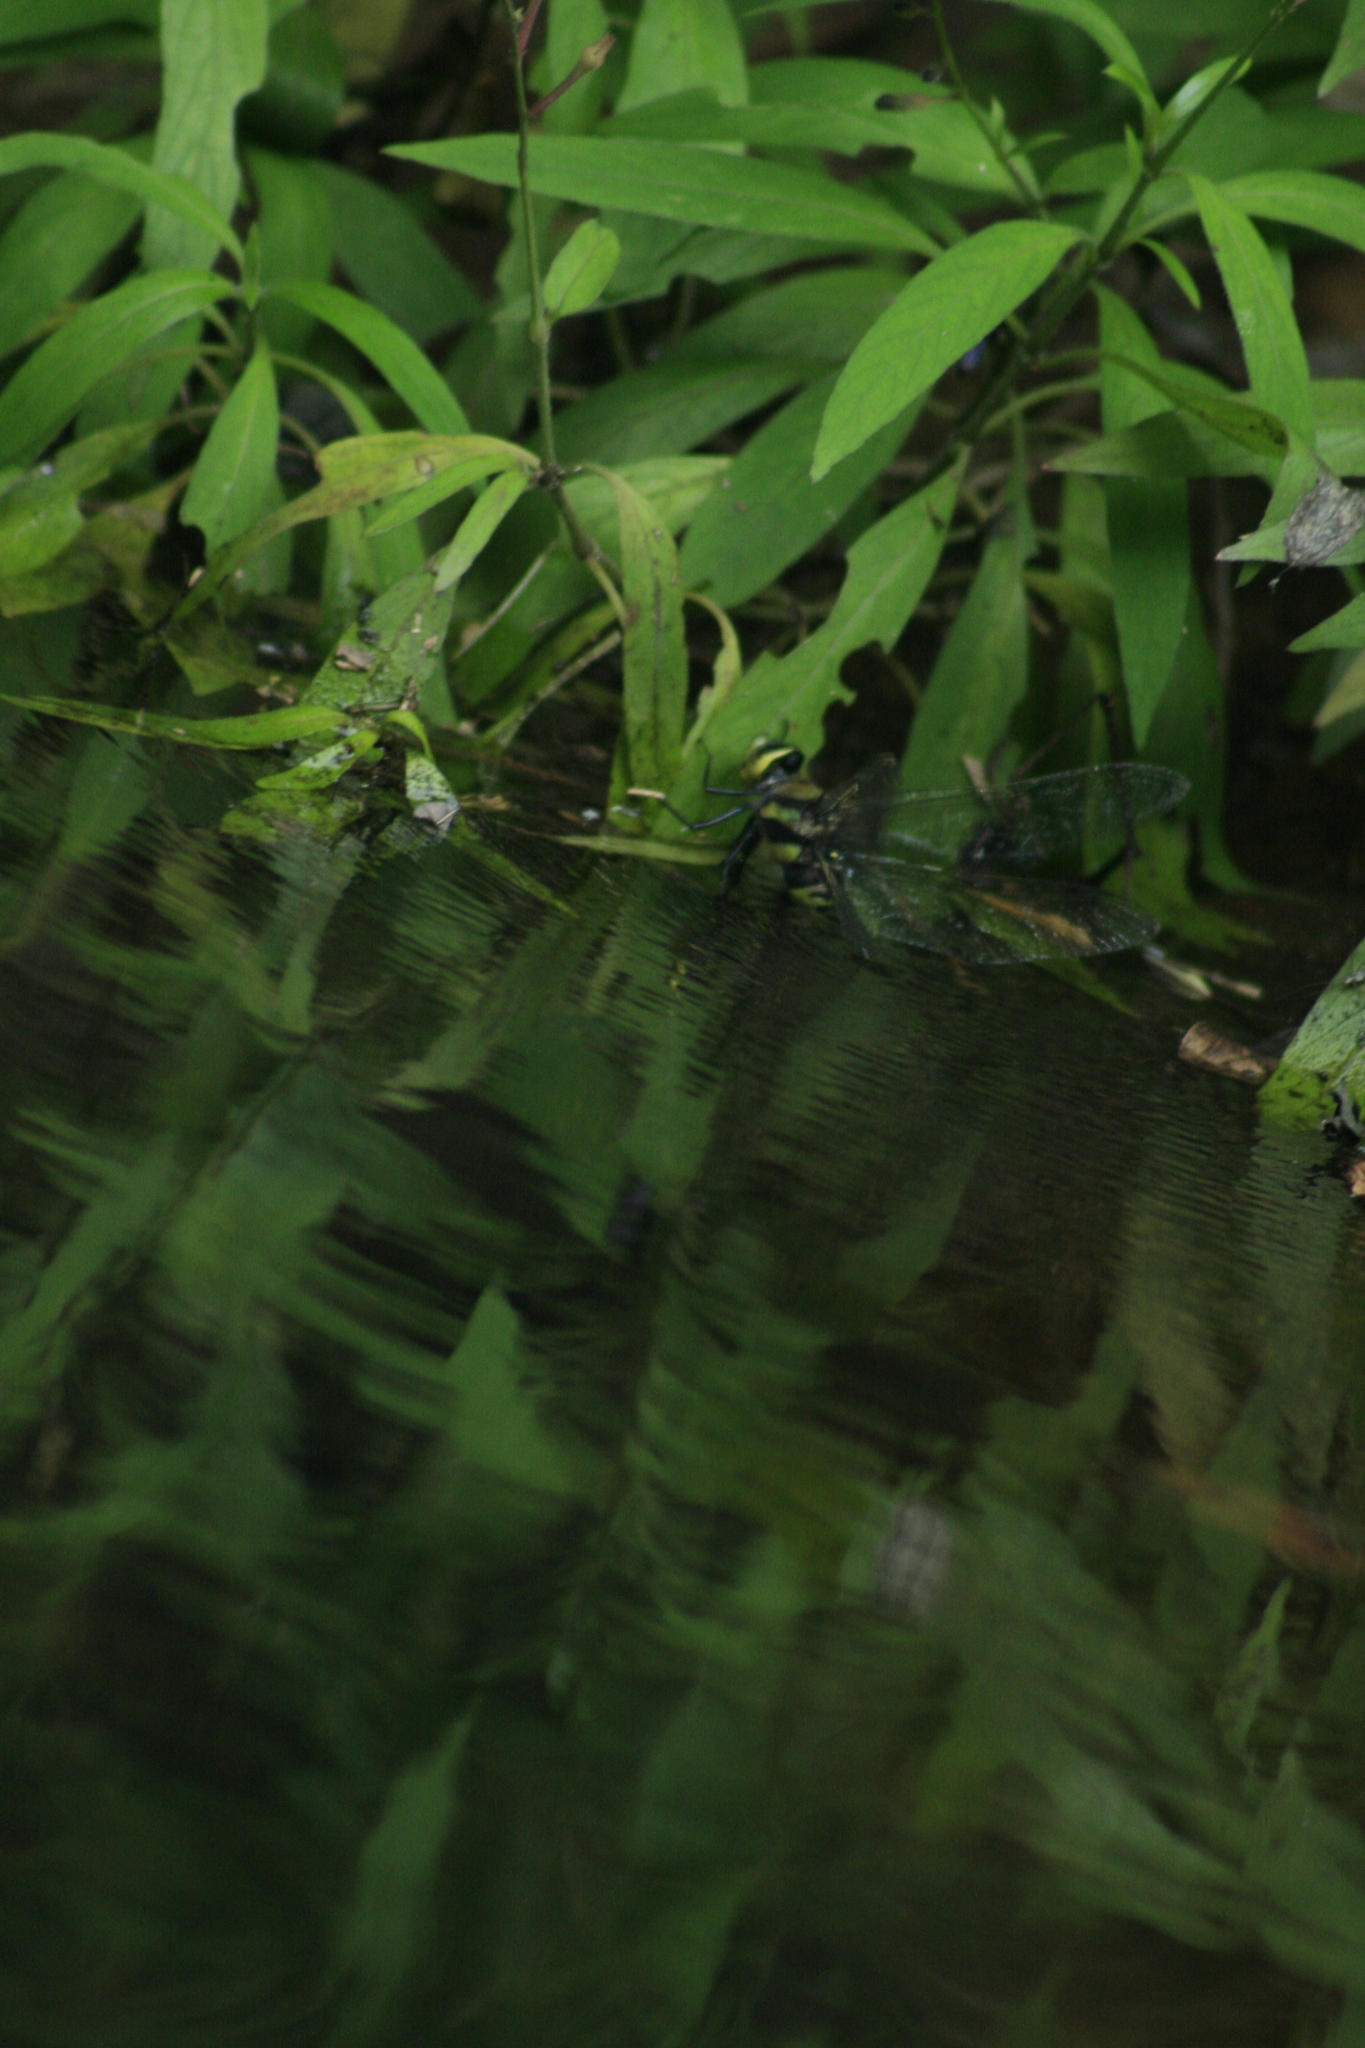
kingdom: Animalia
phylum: Arthropoda
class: Insecta
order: Odonata
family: Aeshnidae
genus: Anax
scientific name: Anax immaculifrons
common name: Magnificent emperor
